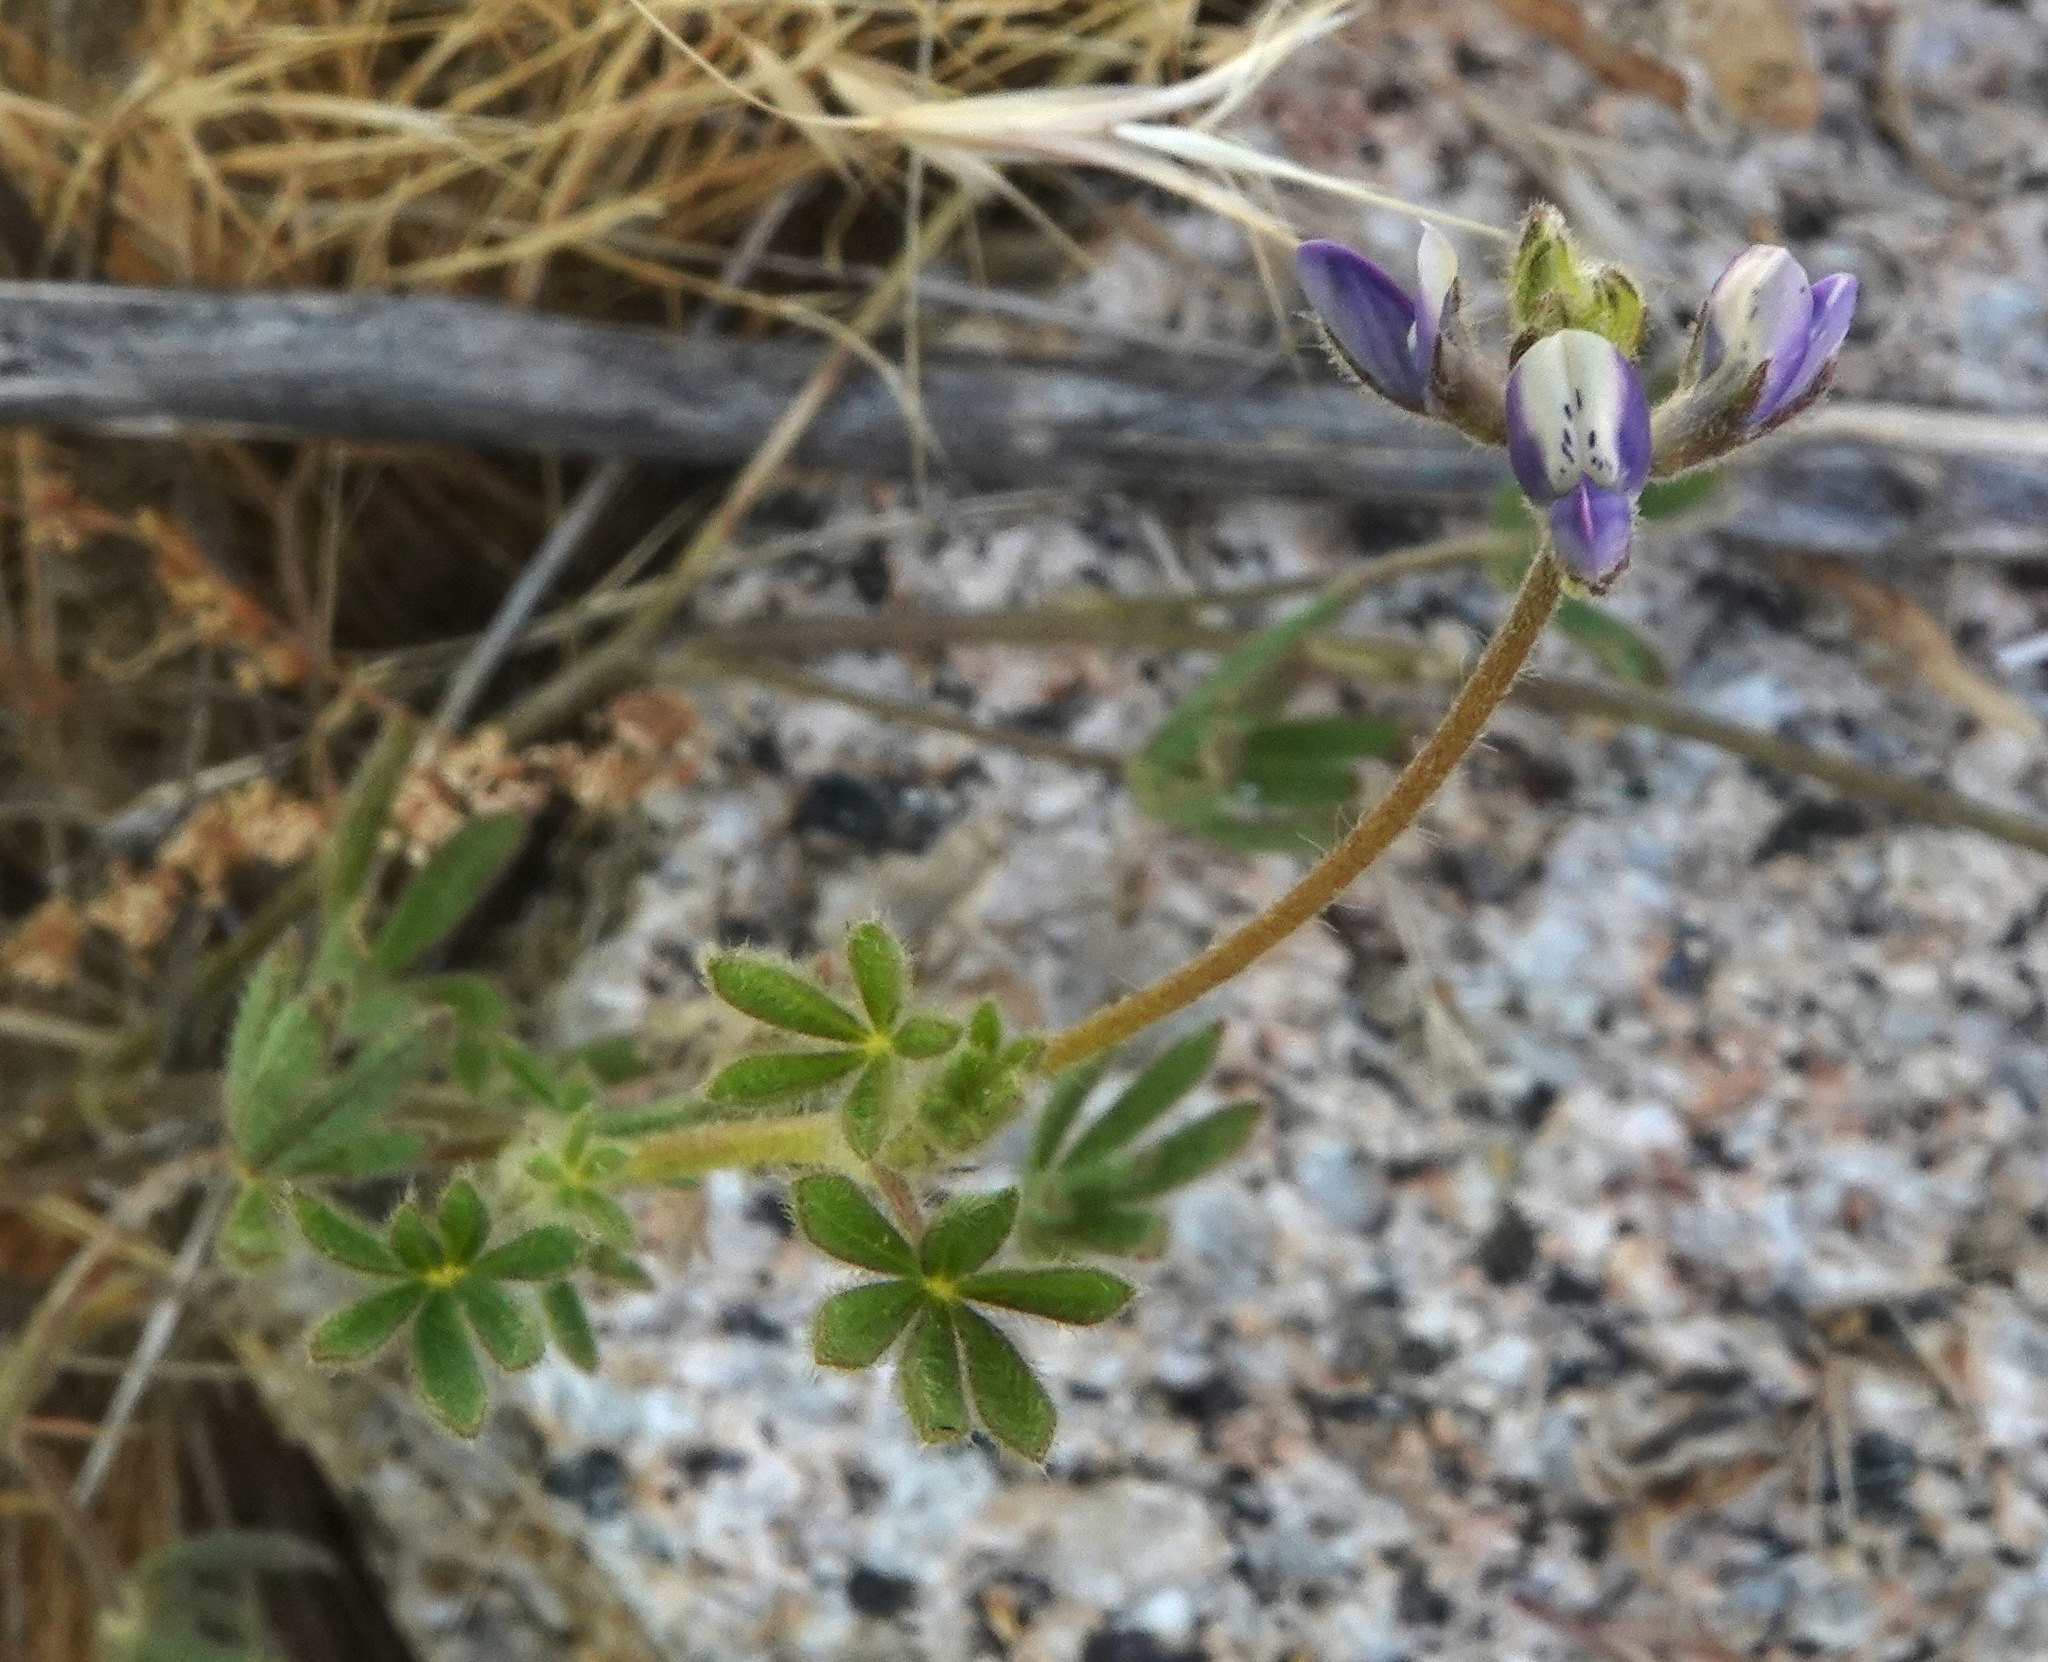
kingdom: Plantae
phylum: Tracheophyta
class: Magnoliopsida
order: Fabales
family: Fabaceae
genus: Lupinus
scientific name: Lupinus bicolor
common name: Miniature lupine
